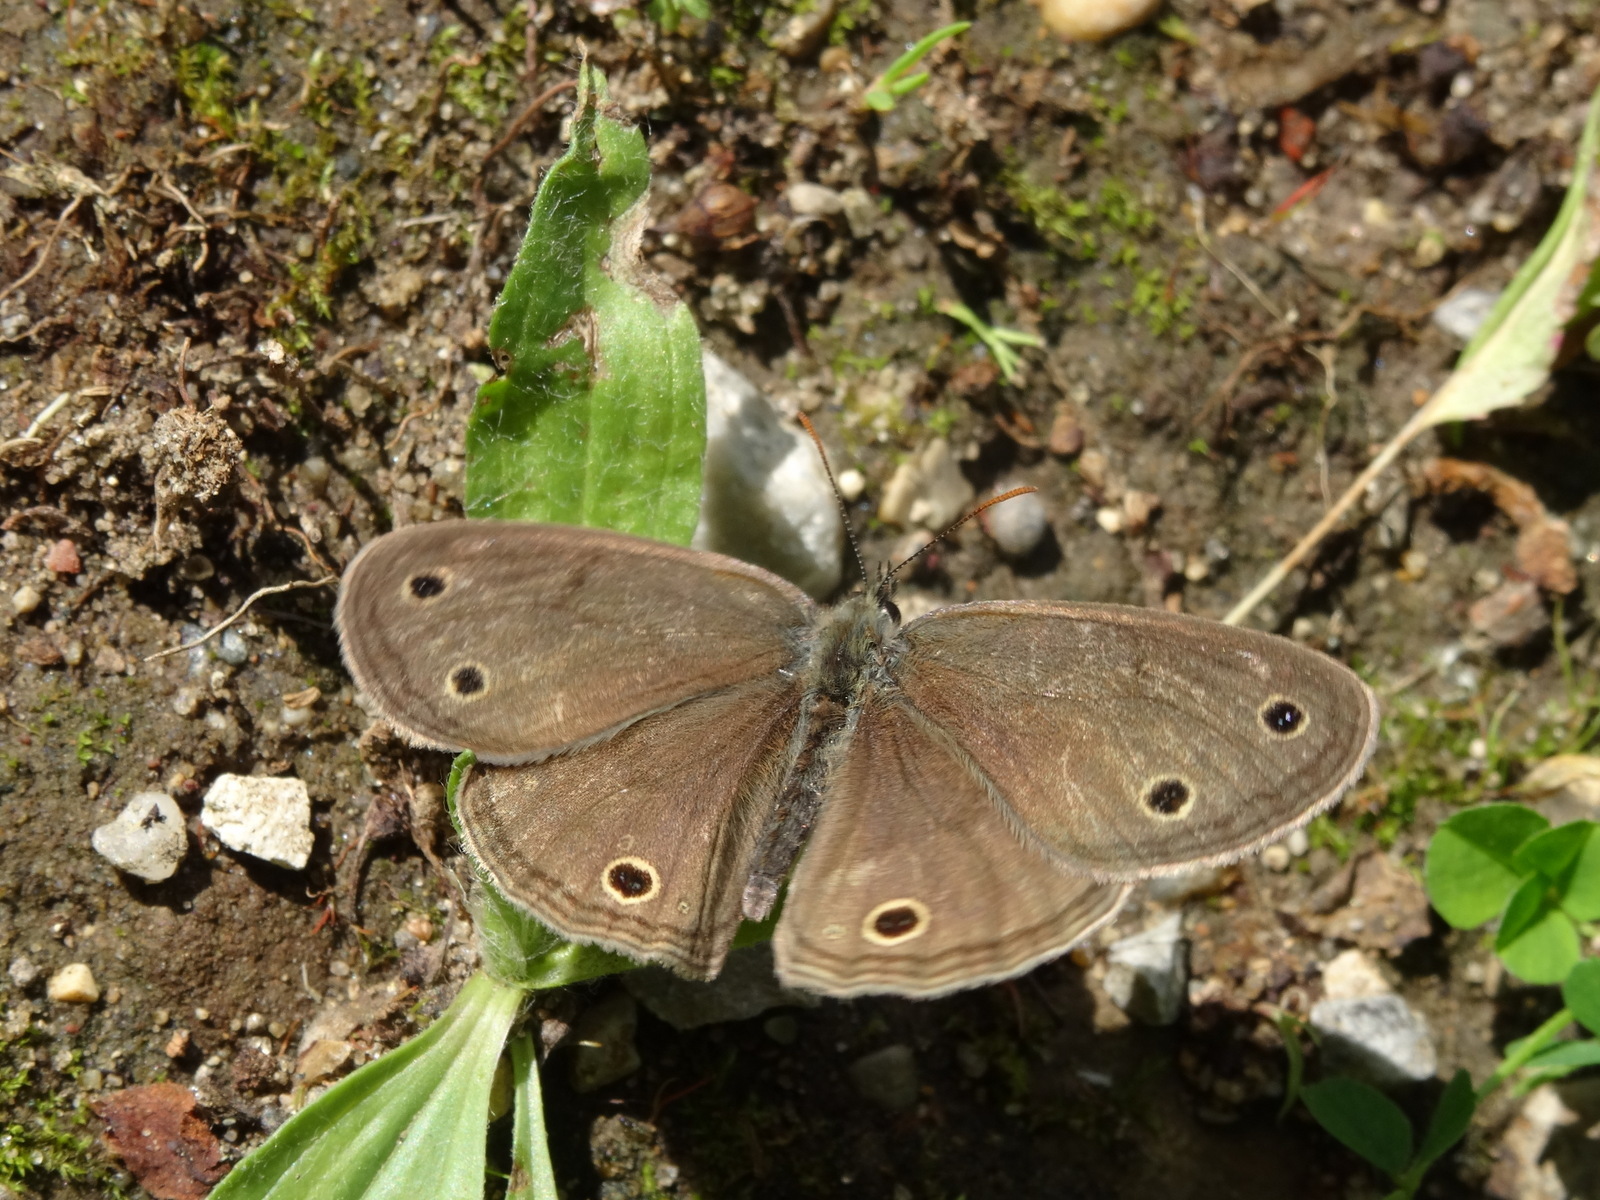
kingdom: Animalia
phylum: Arthropoda
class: Insecta
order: Lepidoptera
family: Nymphalidae
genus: Euptychia
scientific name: Euptychia cymela
